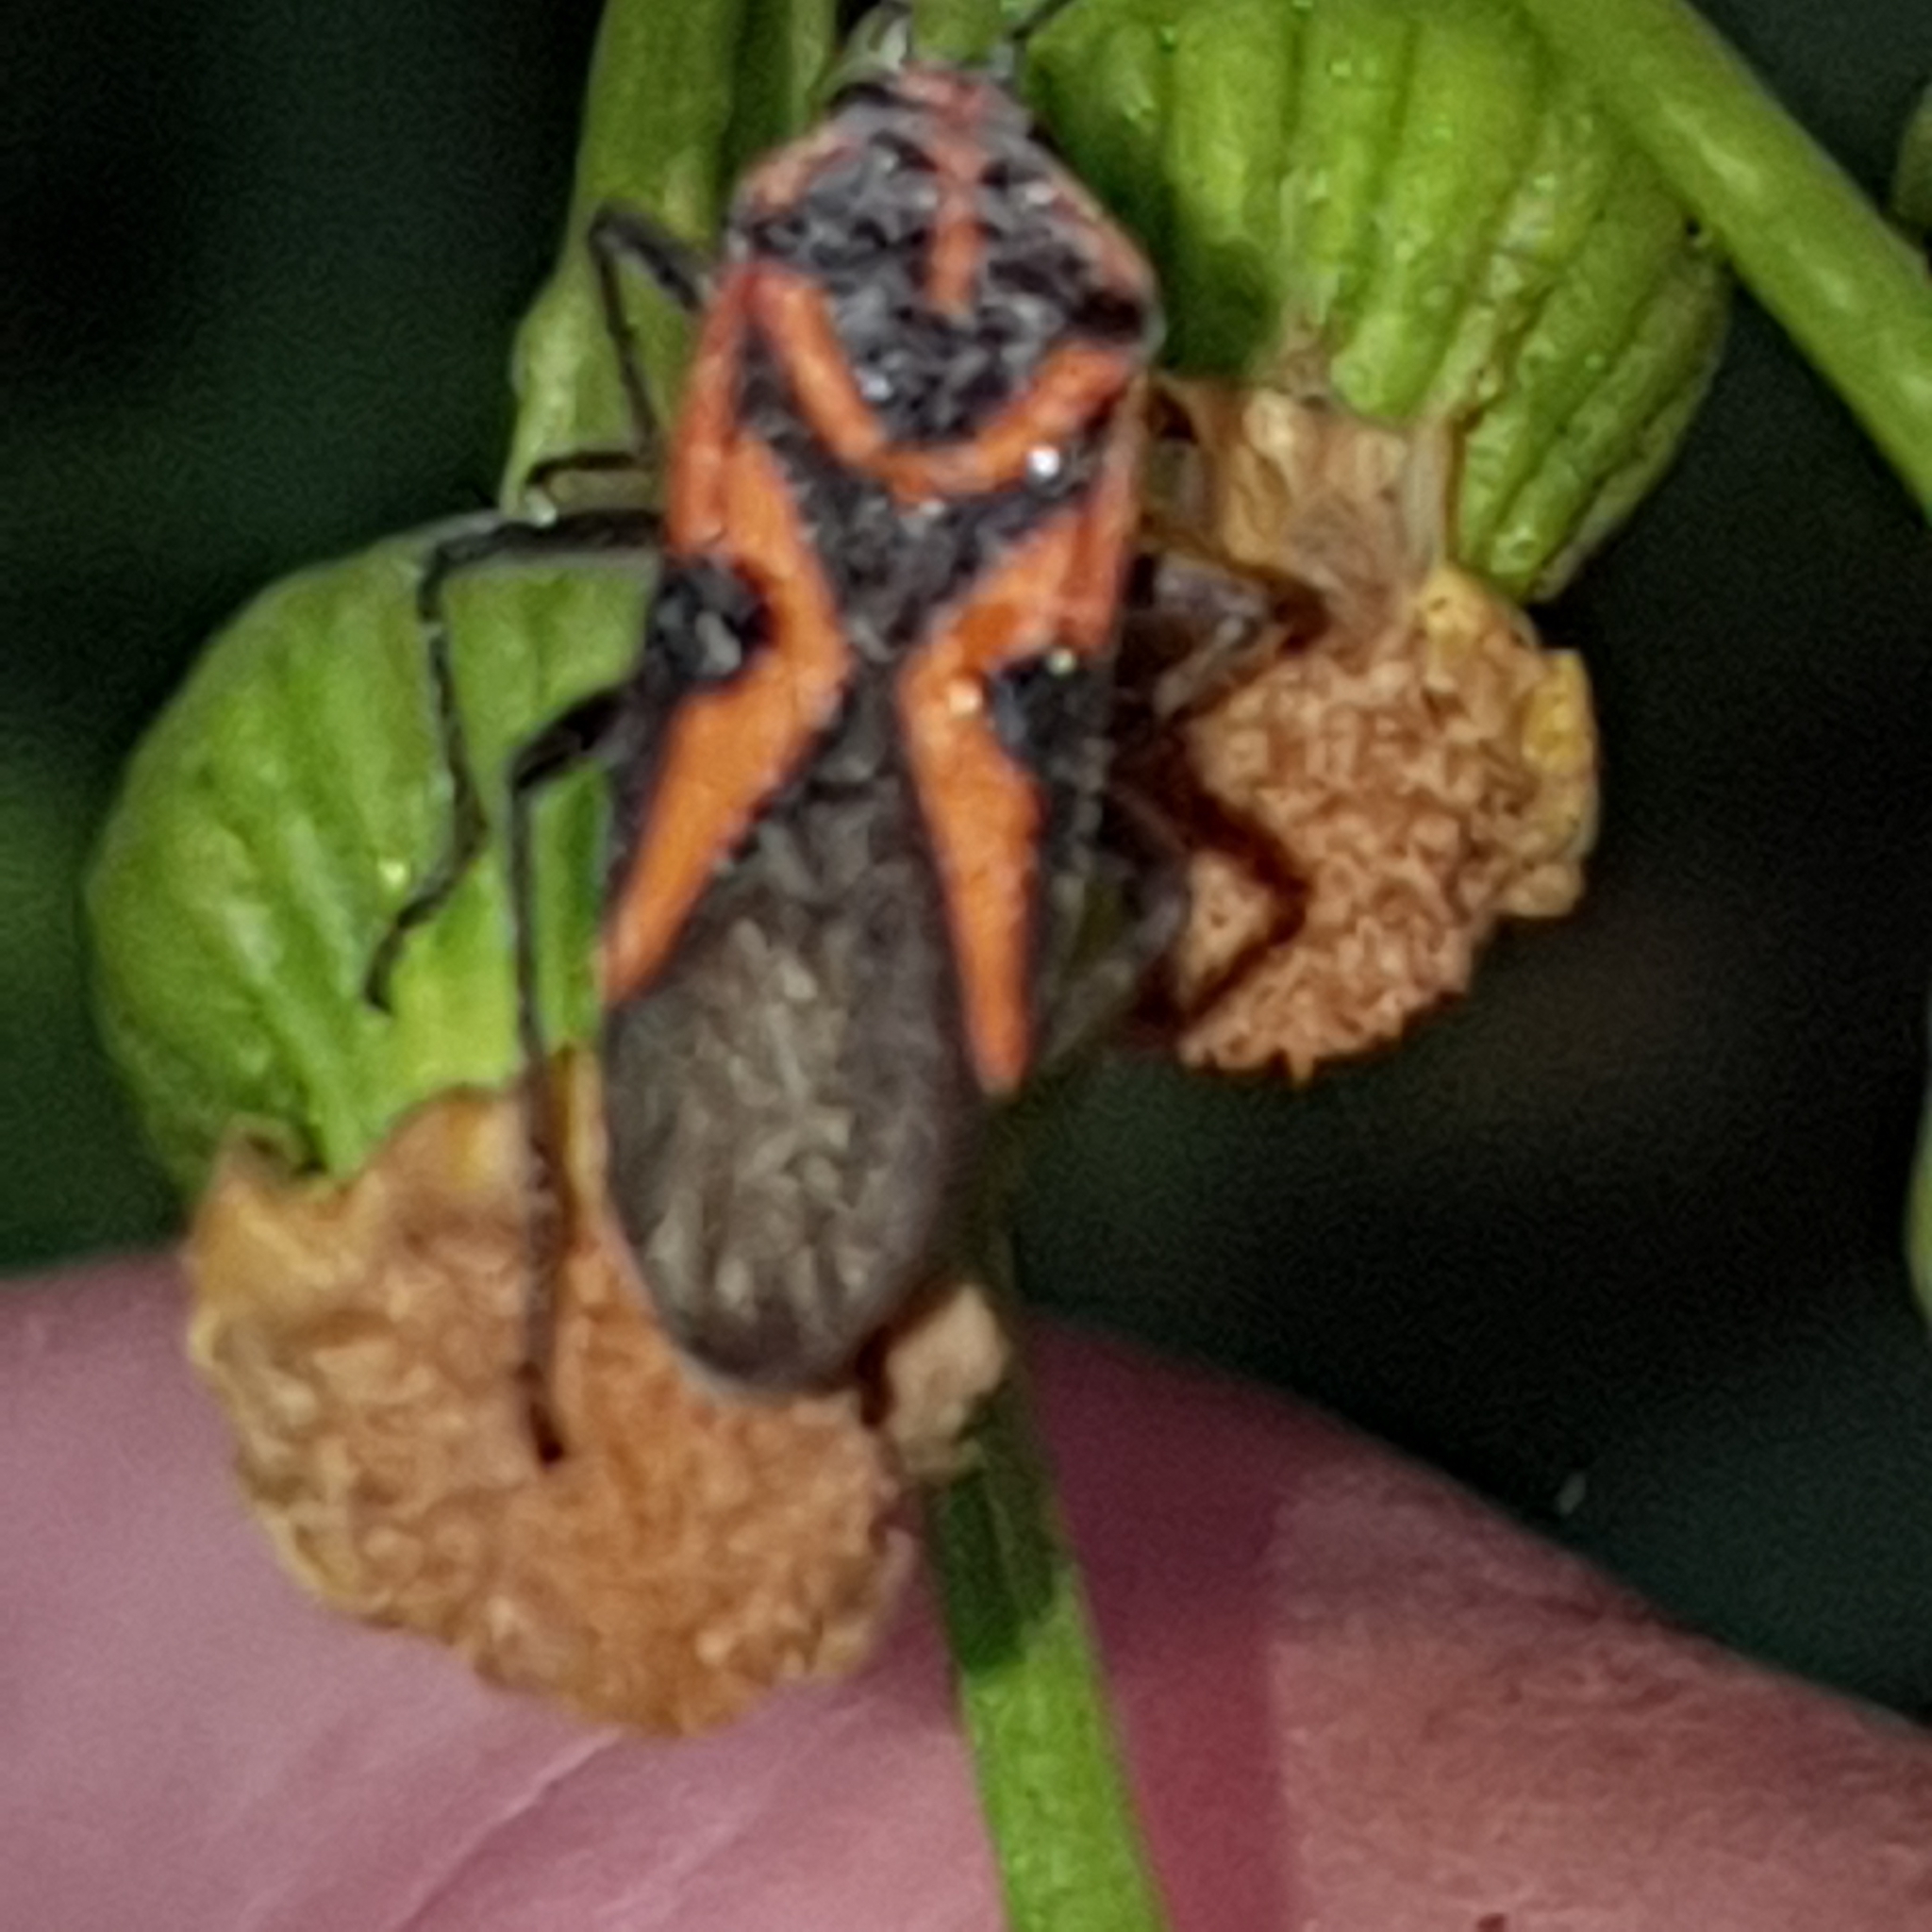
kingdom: Animalia
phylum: Arthropoda
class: Insecta
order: Hemiptera
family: Lygaeidae
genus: Spilostethus
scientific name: Spilostethus hospes
